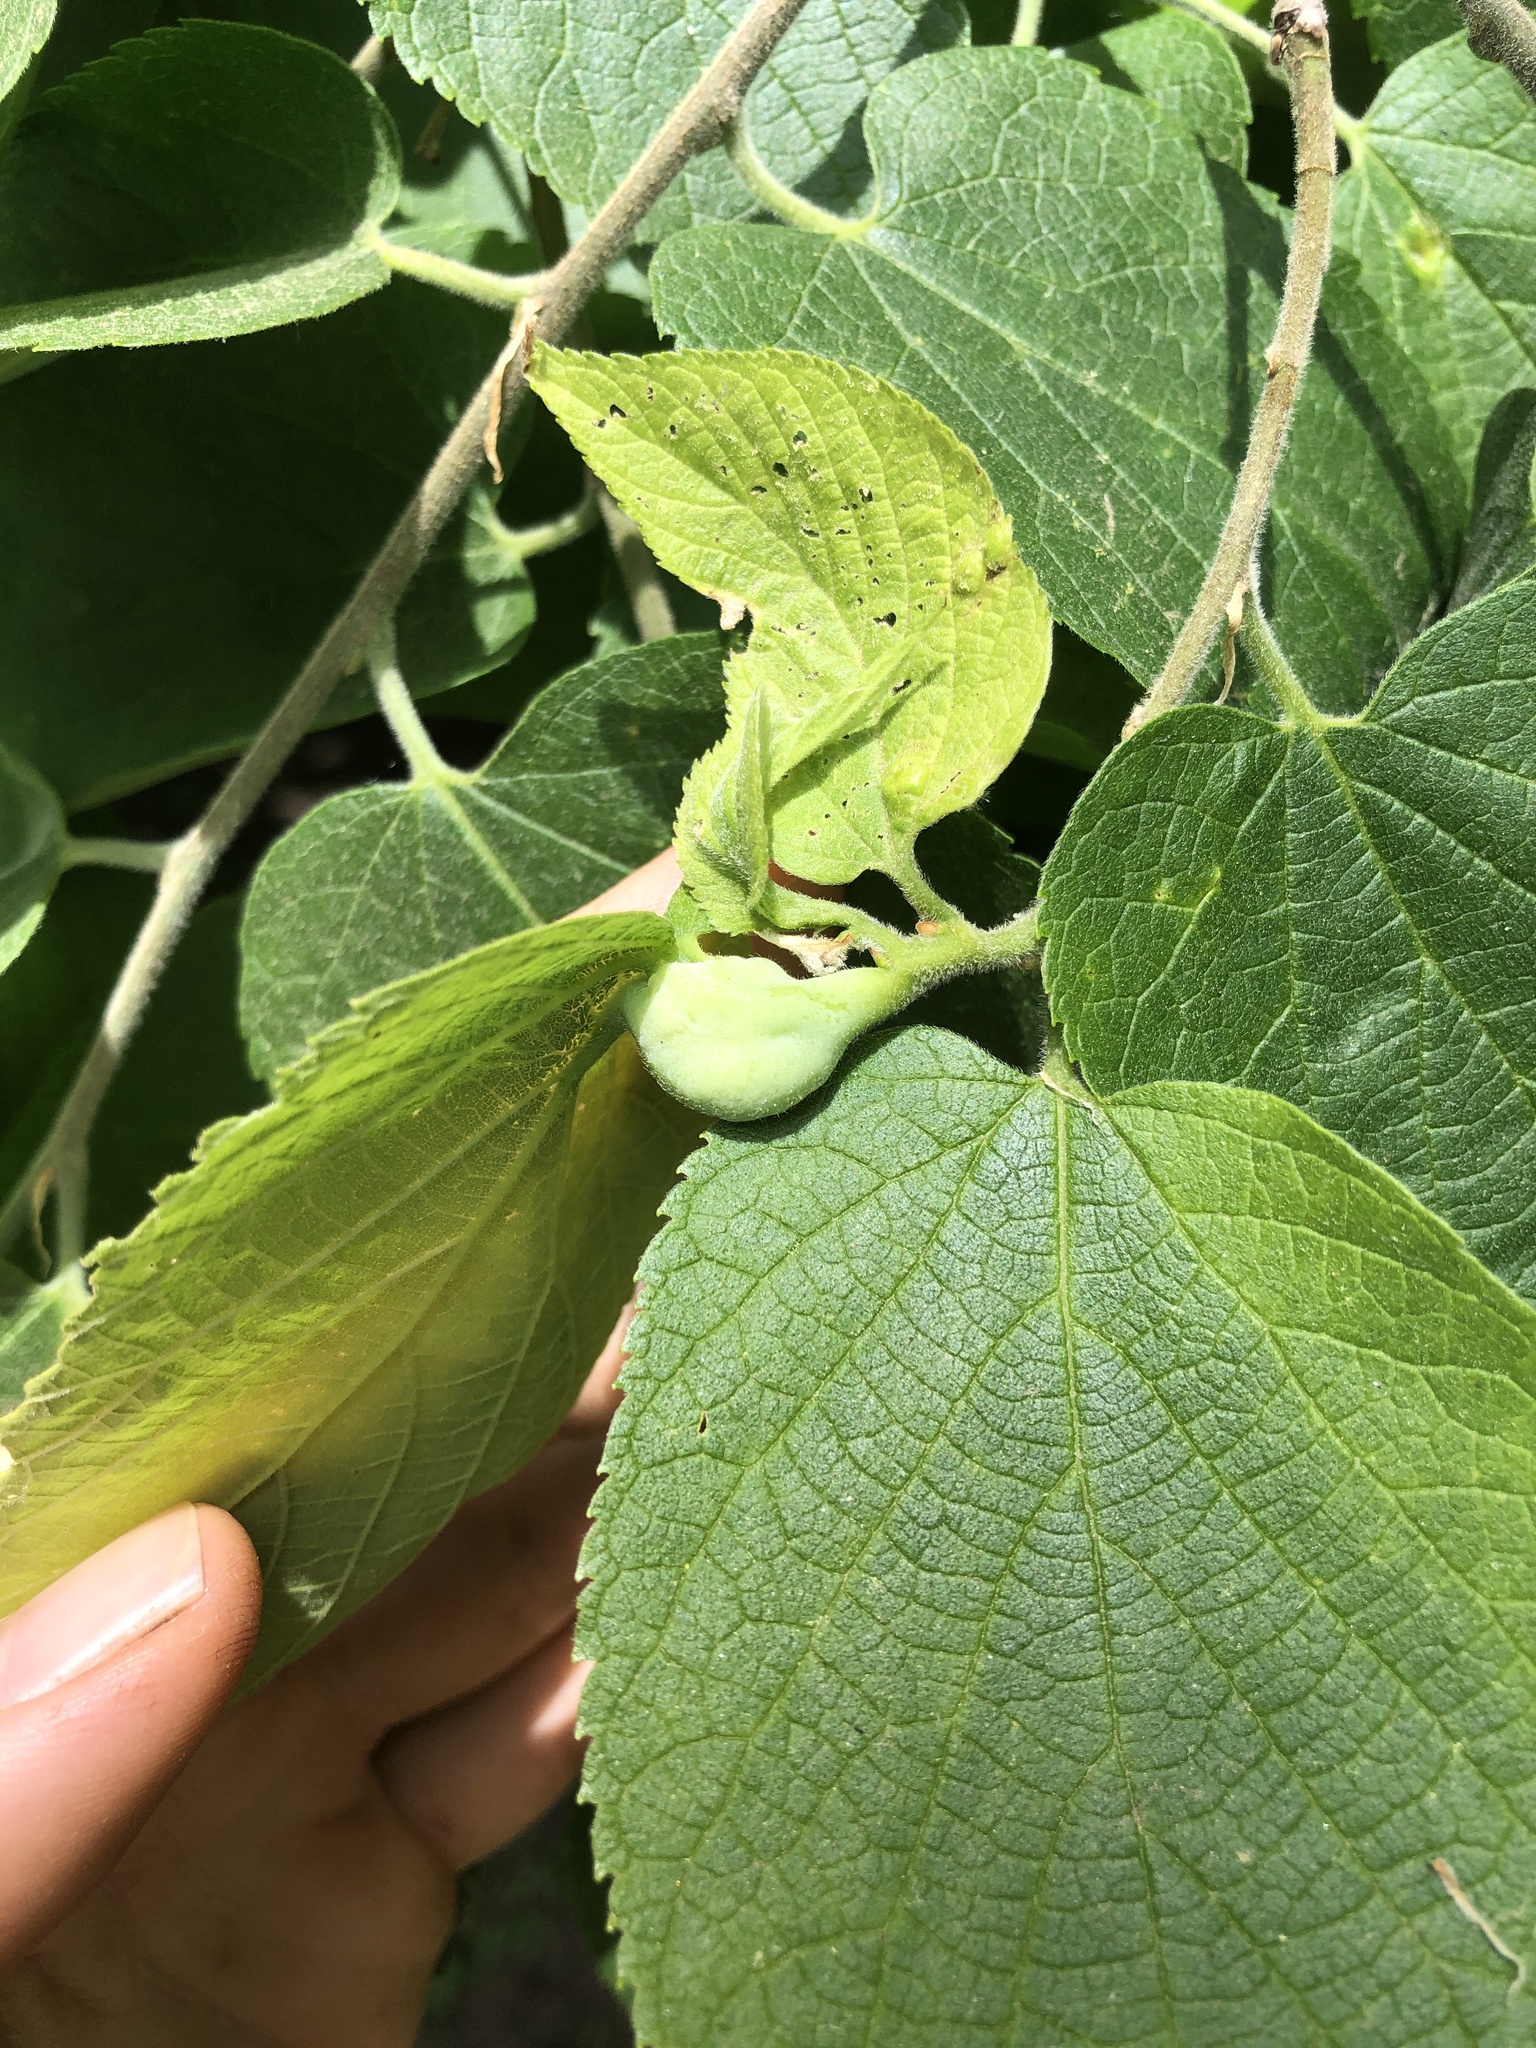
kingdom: Animalia
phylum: Arthropoda
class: Insecta
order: Hemiptera
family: Aphalaridae
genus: Pachypsylla
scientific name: Pachypsylla venusta
